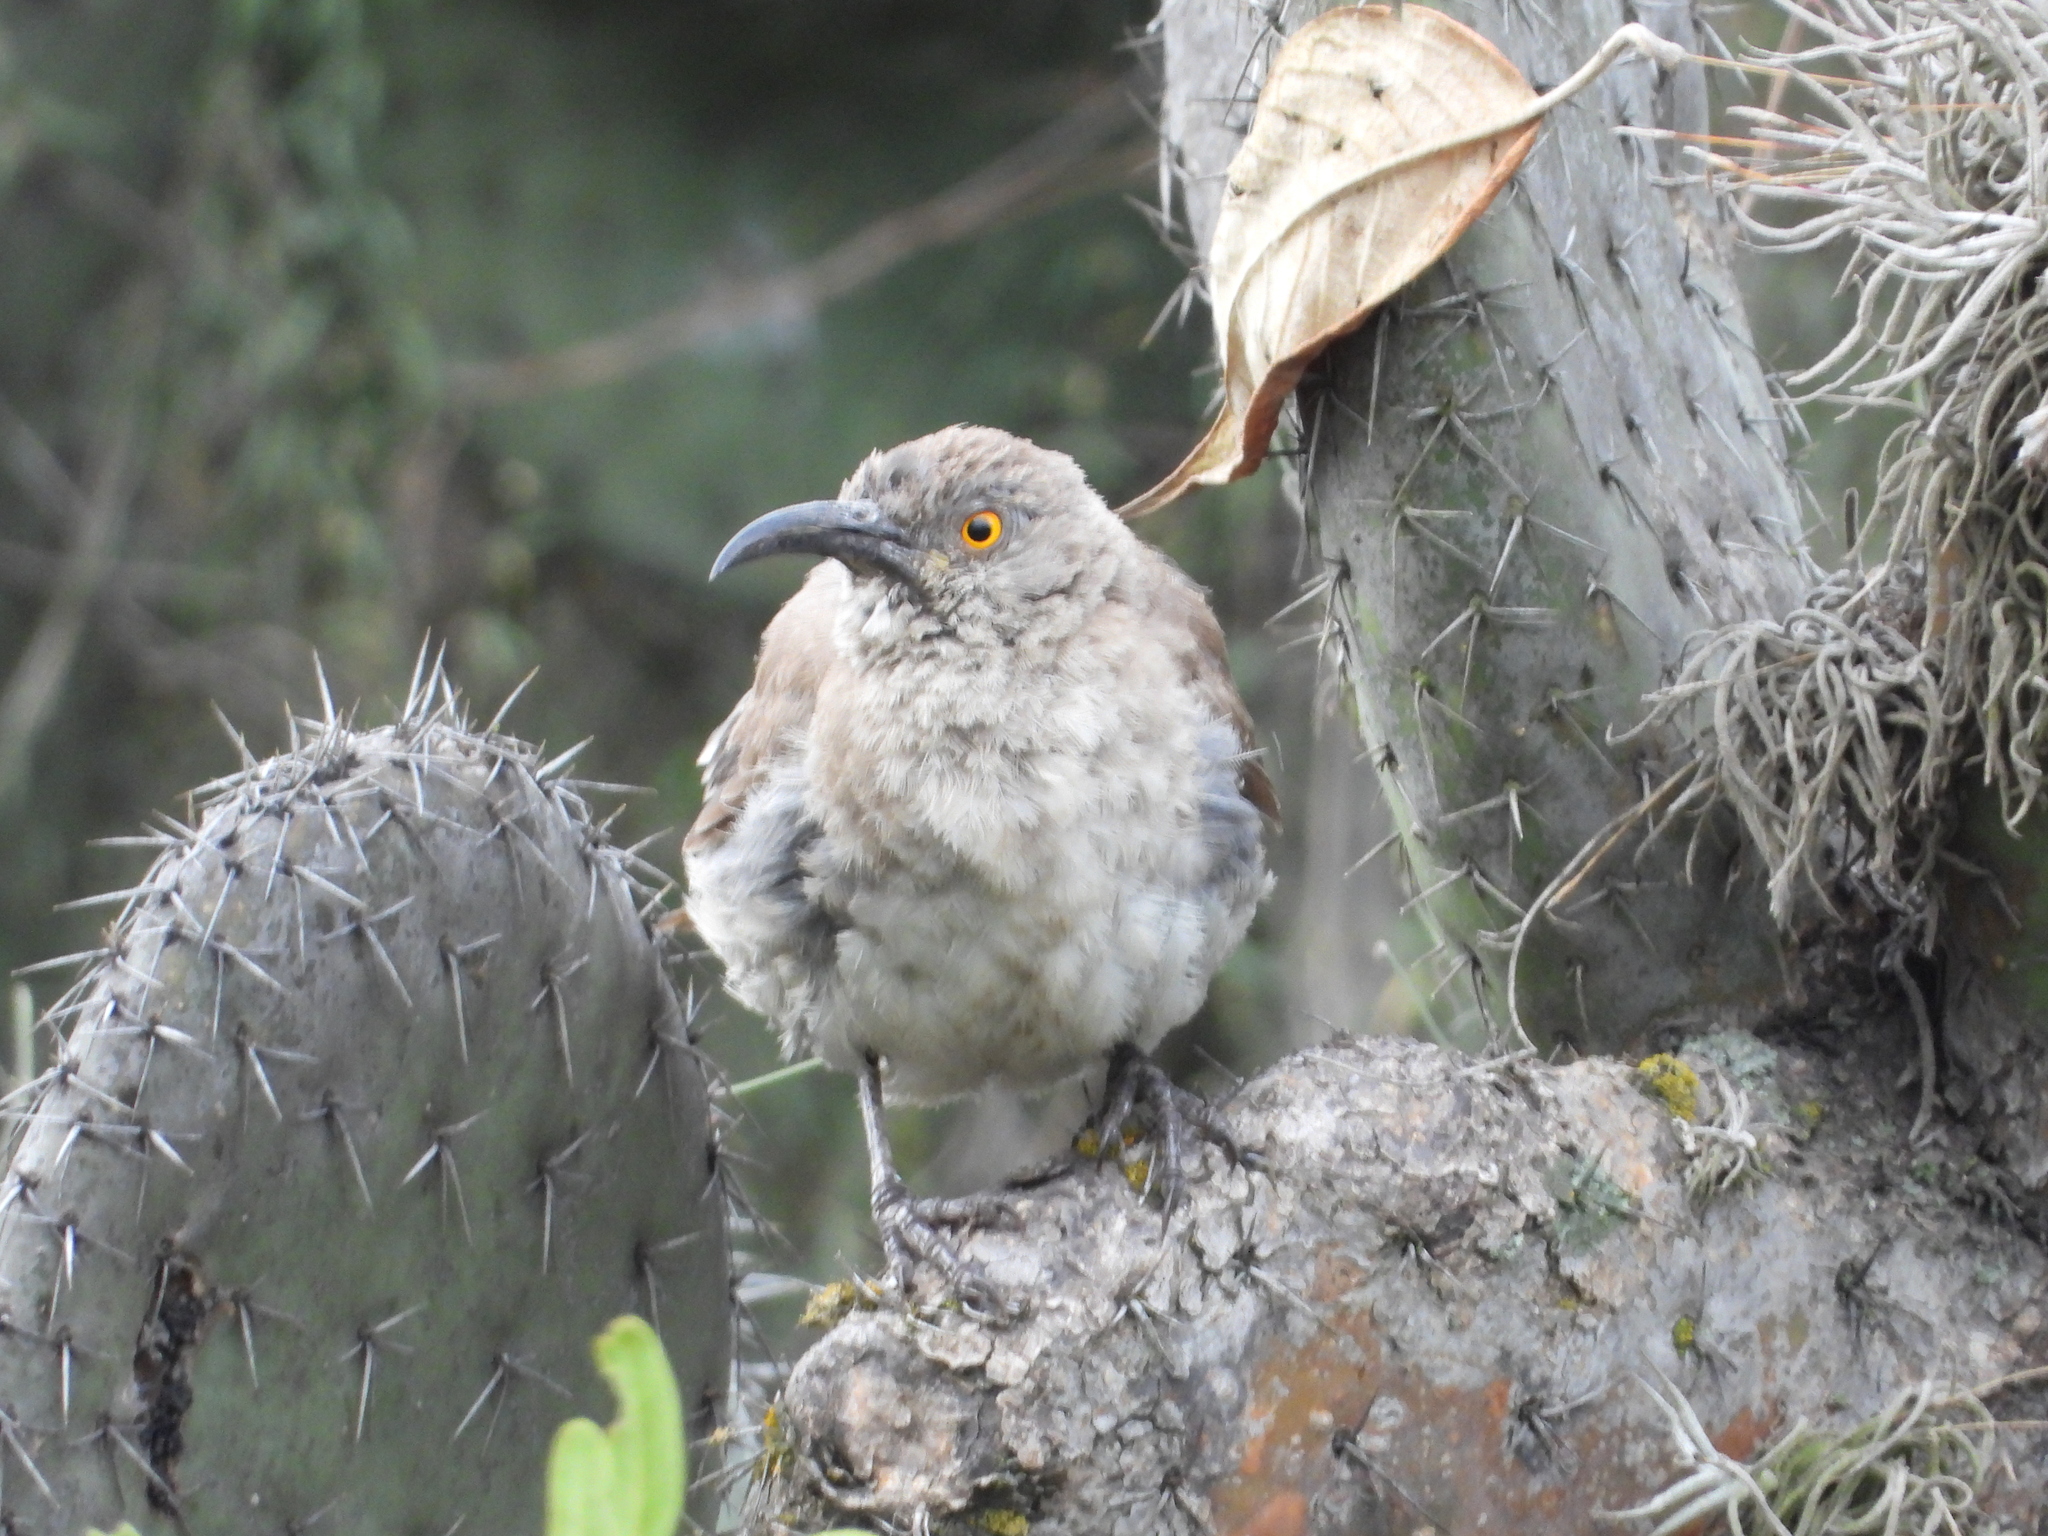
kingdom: Animalia
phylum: Chordata
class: Aves
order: Passeriformes
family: Mimidae
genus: Toxostoma
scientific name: Toxostoma curvirostre
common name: Curve-billed thrasher
